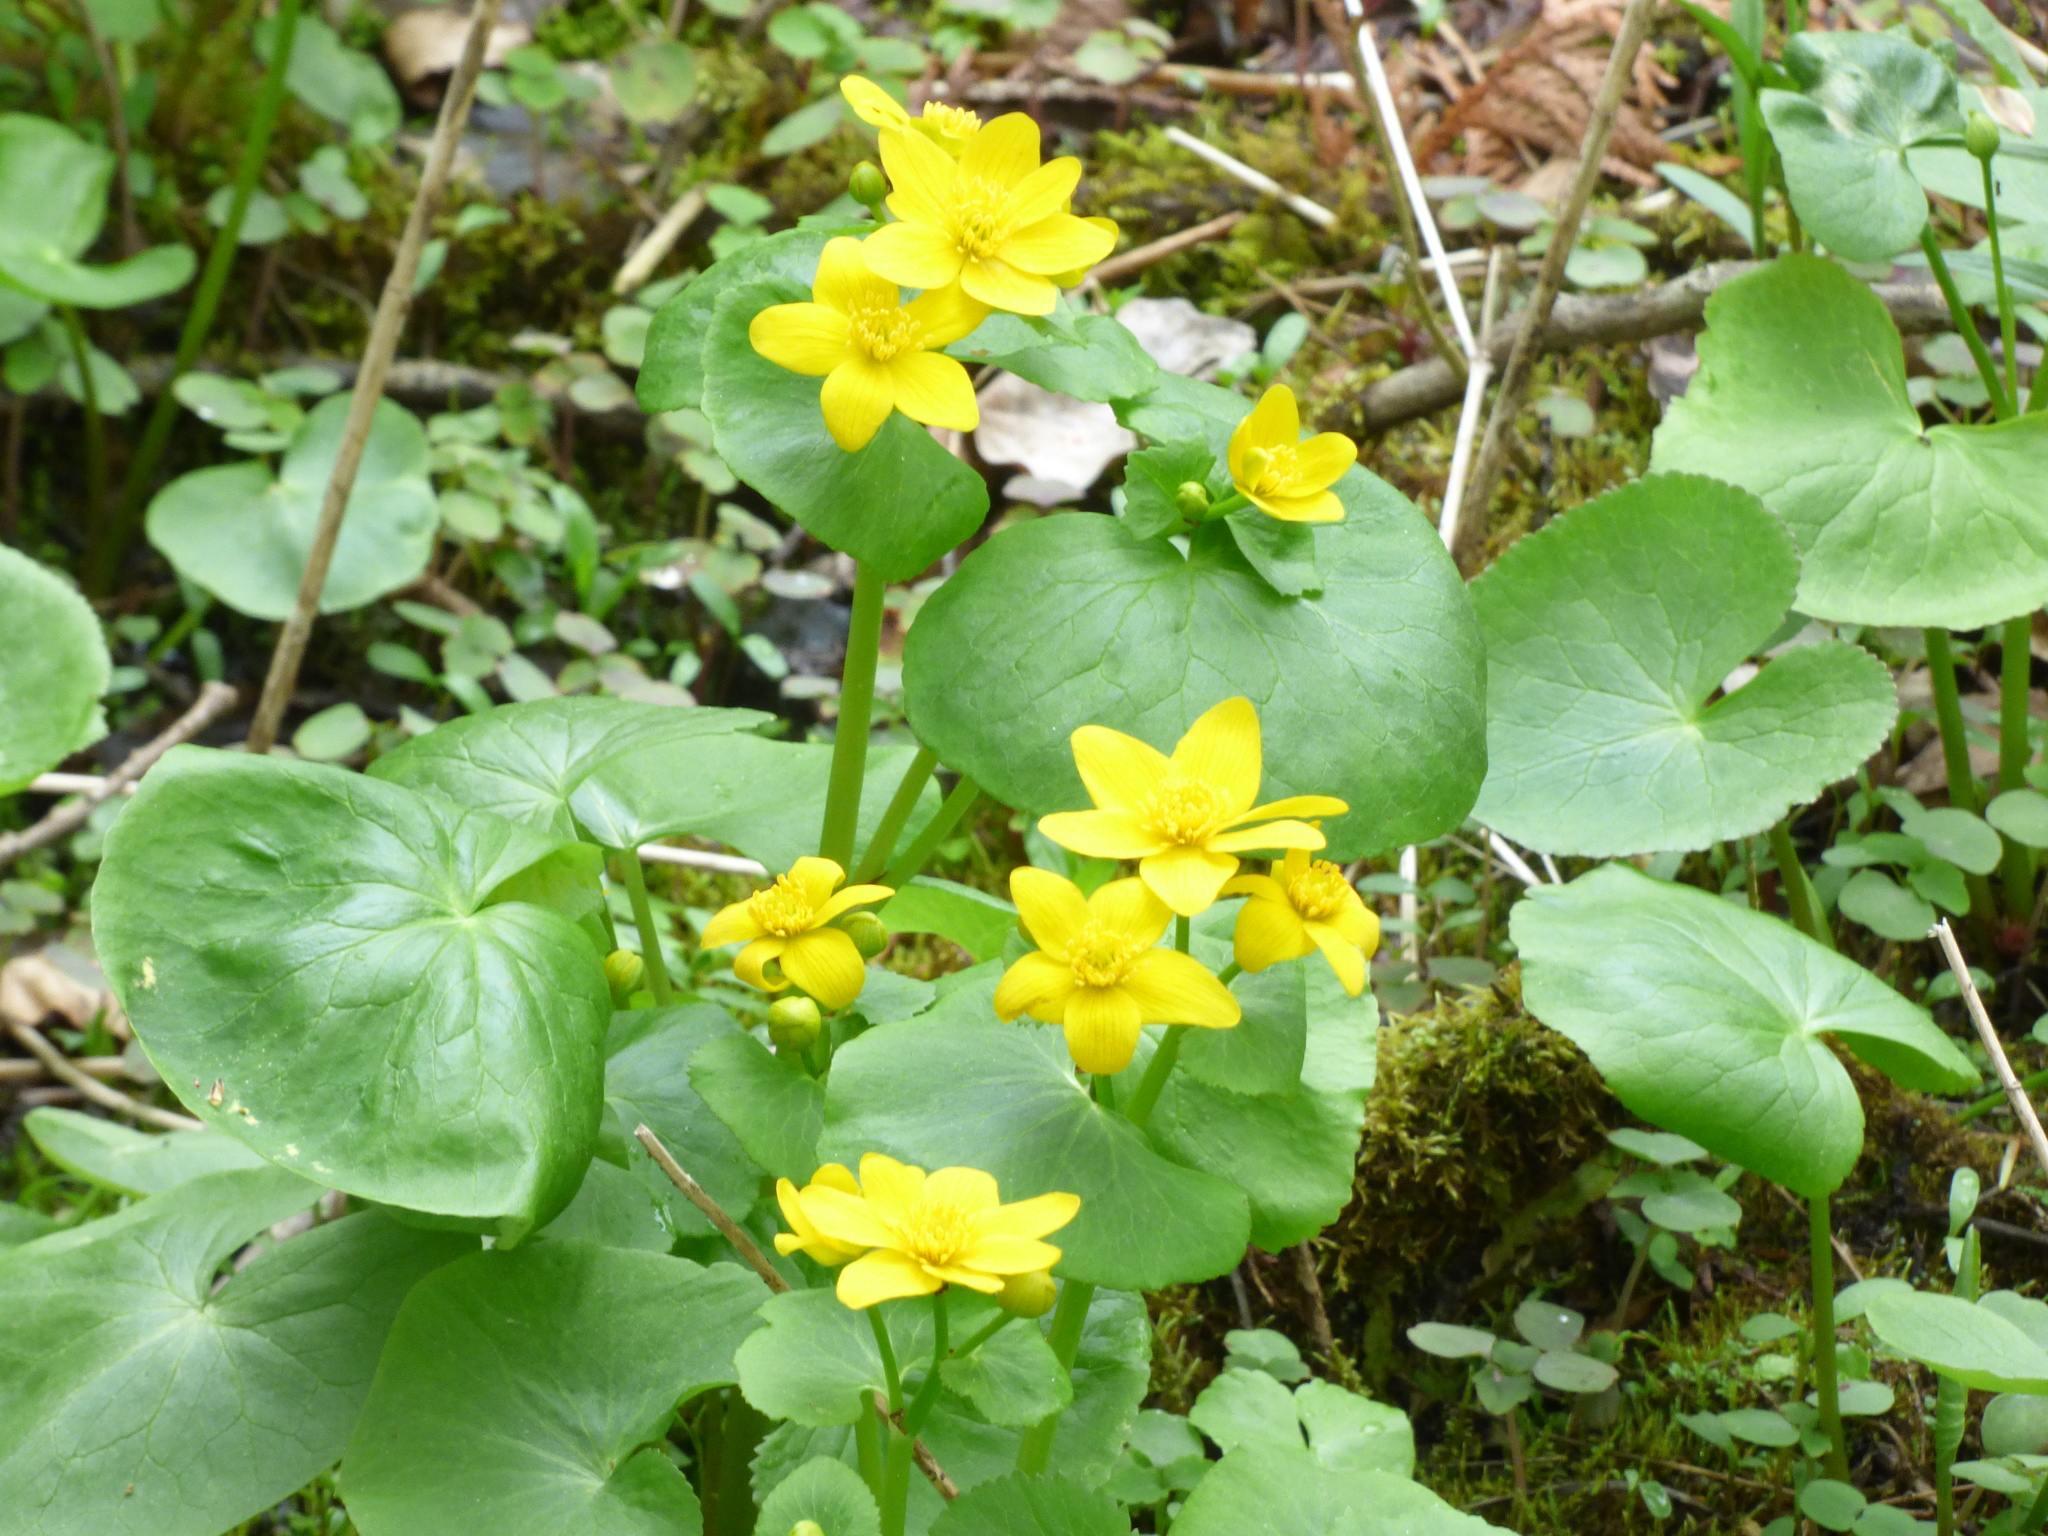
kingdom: Plantae
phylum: Tracheophyta
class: Magnoliopsida
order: Ranunculales
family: Ranunculaceae
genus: Caltha
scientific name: Caltha palustris
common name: Marsh marigold
